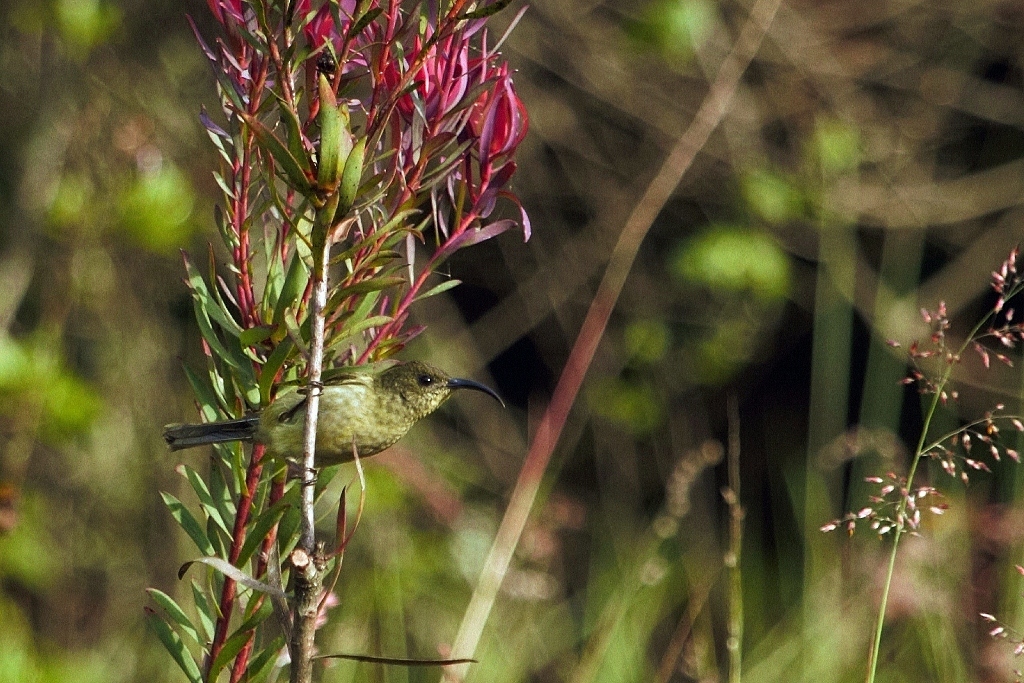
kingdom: Animalia
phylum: Chordata
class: Aves
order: Passeriformes
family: Nectariniidae
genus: Cyanomitra
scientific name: Cyanomitra olivacea
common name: Olive sunbird
